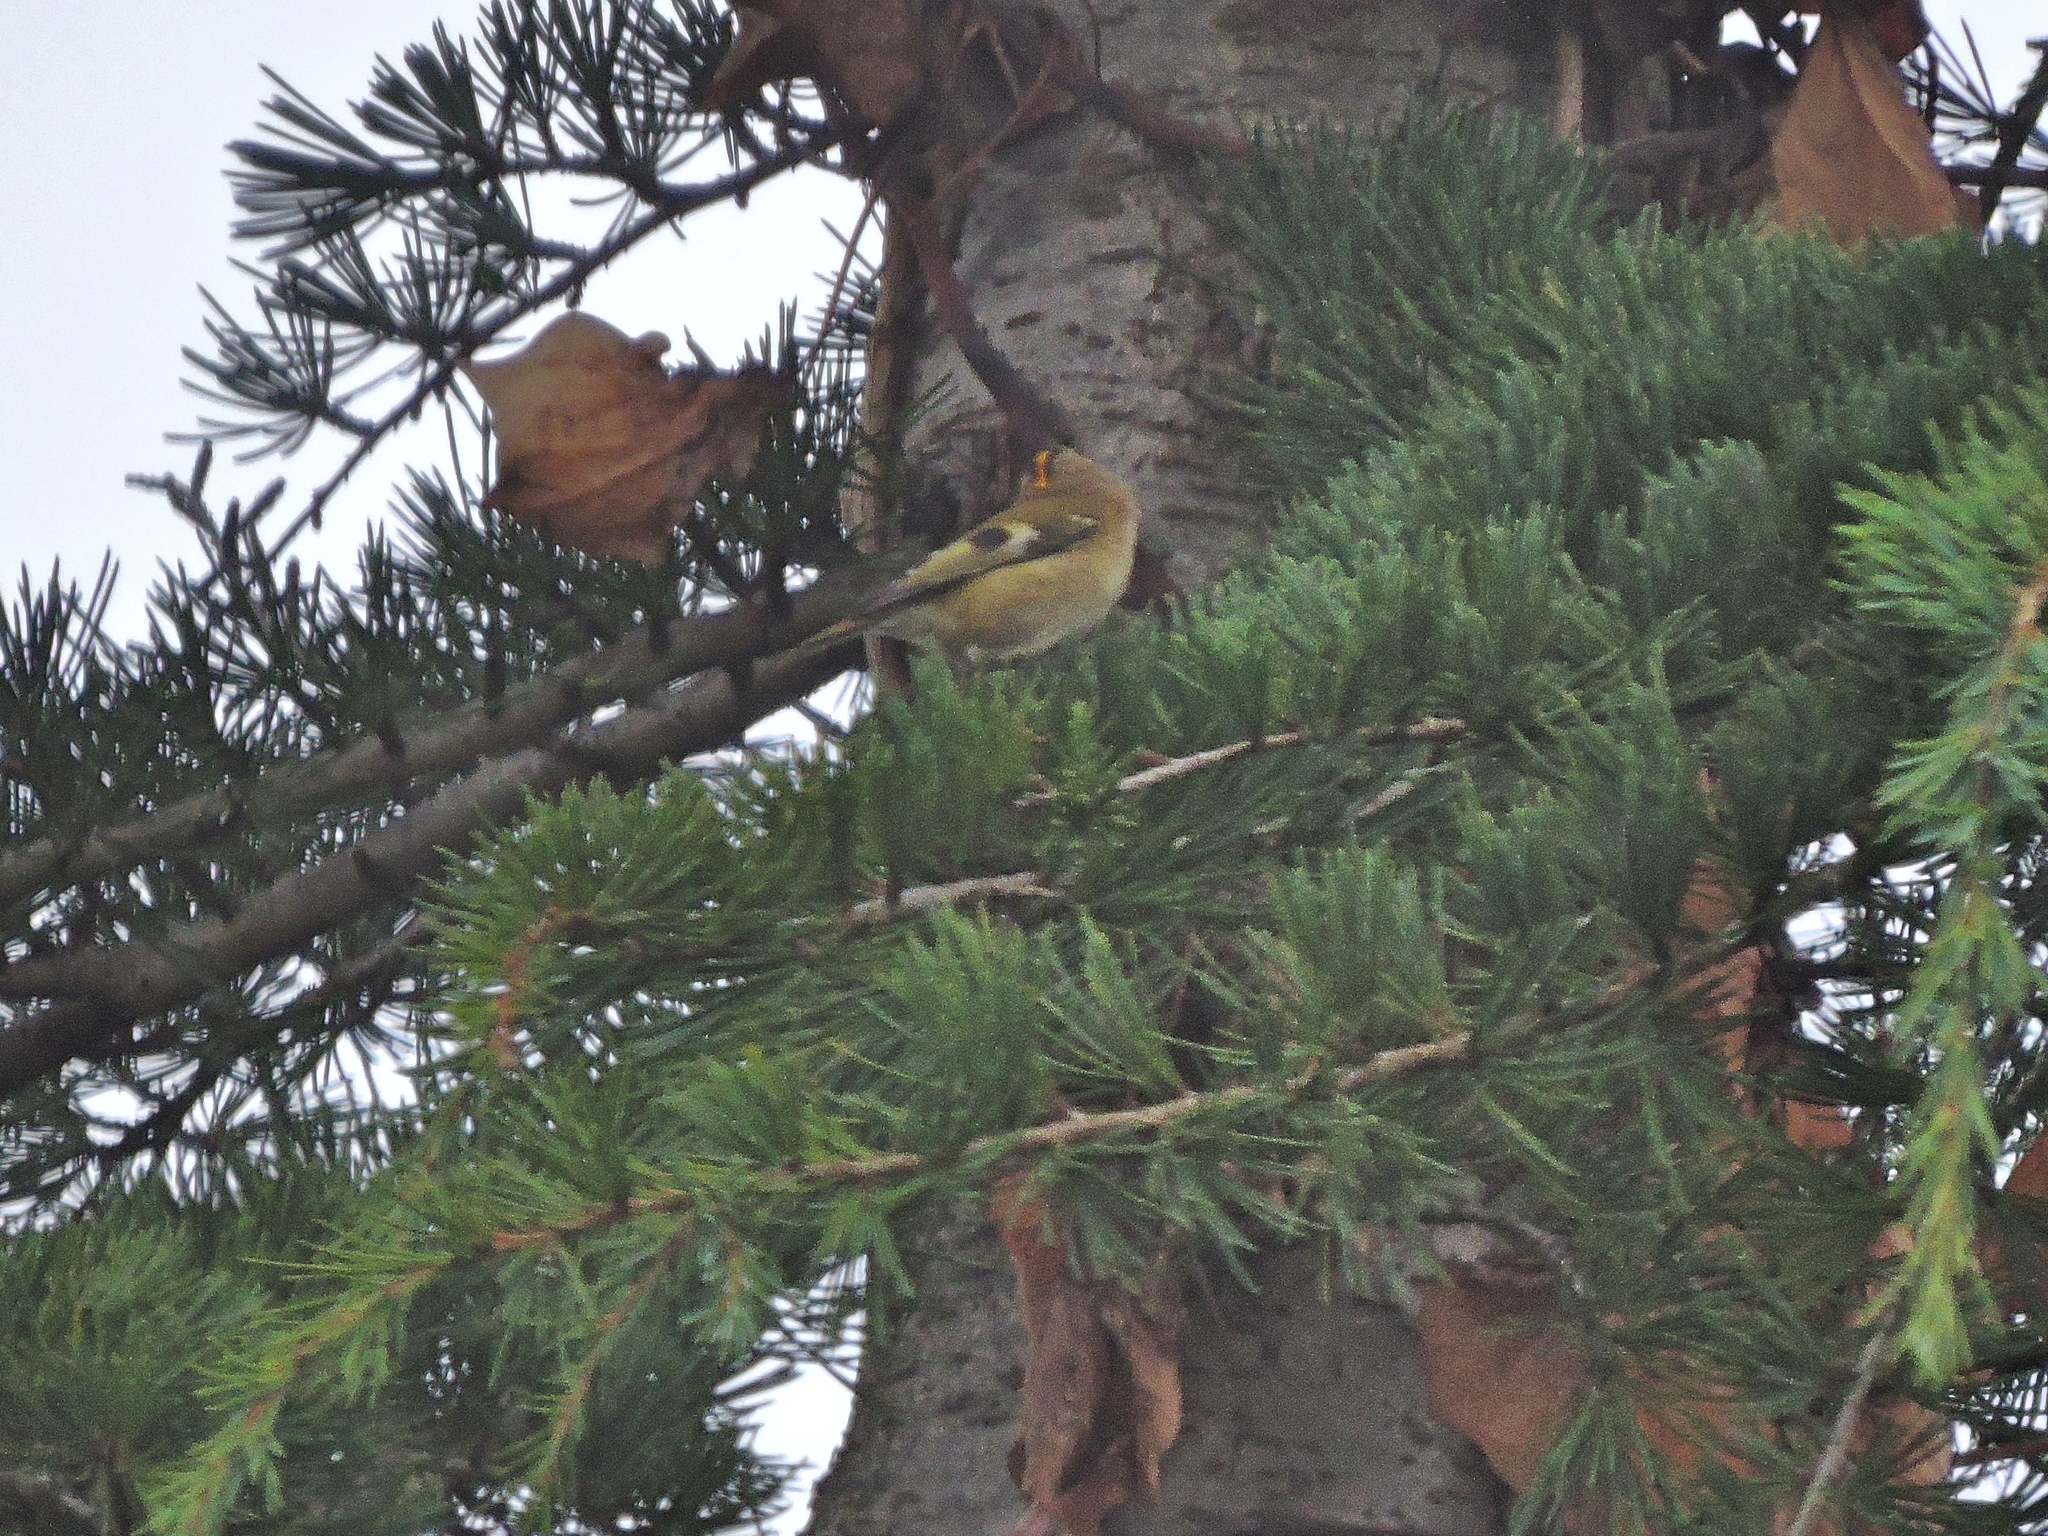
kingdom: Animalia
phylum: Chordata
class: Aves
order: Passeriformes
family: Regulidae
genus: Regulus
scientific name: Regulus regulus
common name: Goldcrest
